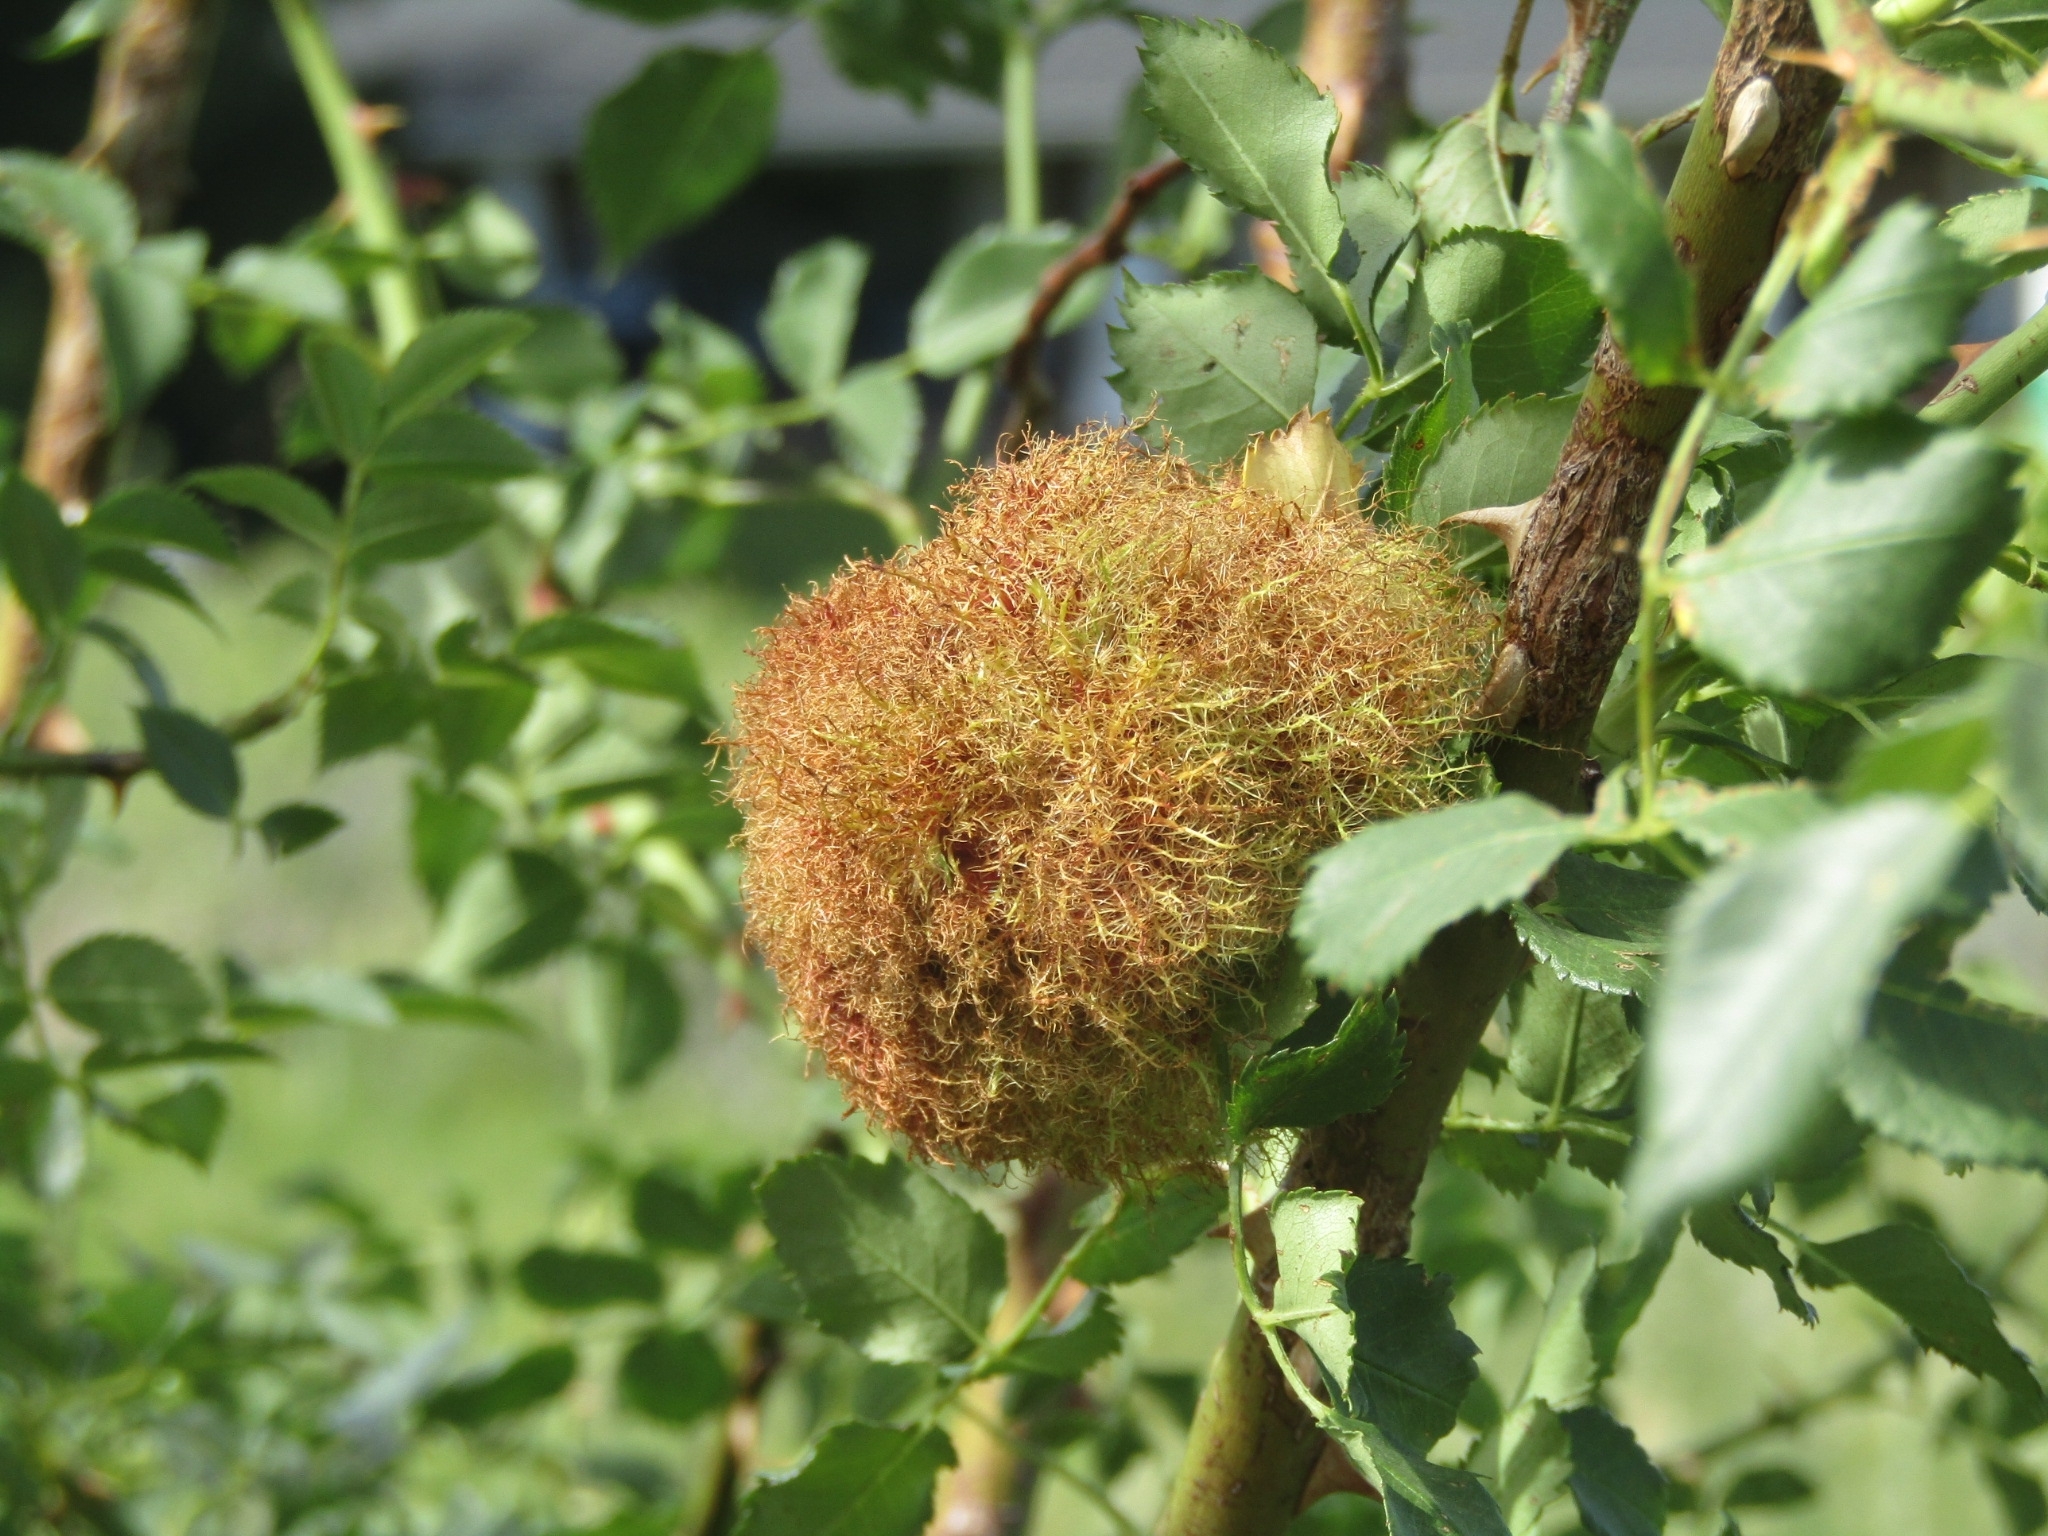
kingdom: Animalia
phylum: Arthropoda
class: Insecta
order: Hymenoptera
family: Cynipidae
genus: Diplolepis
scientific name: Diplolepis rosae
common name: Bedeguar gall
